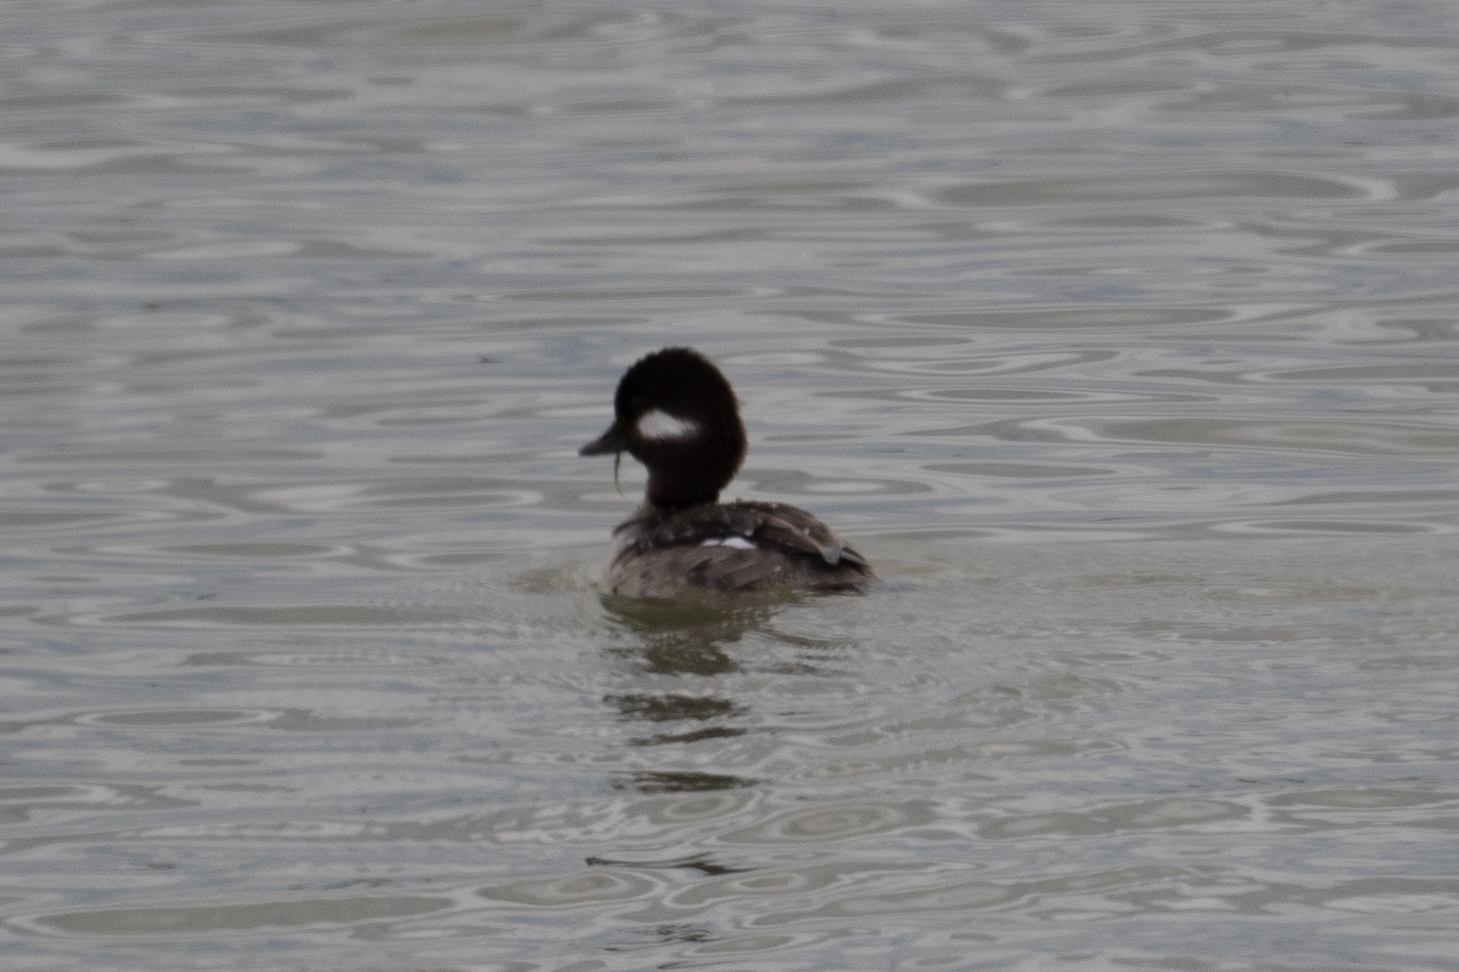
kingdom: Animalia
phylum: Chordata
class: Aves
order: Anseriformes
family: Anatidae
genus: Bucephala
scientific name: Bucephala albeola
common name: Bufflehead
